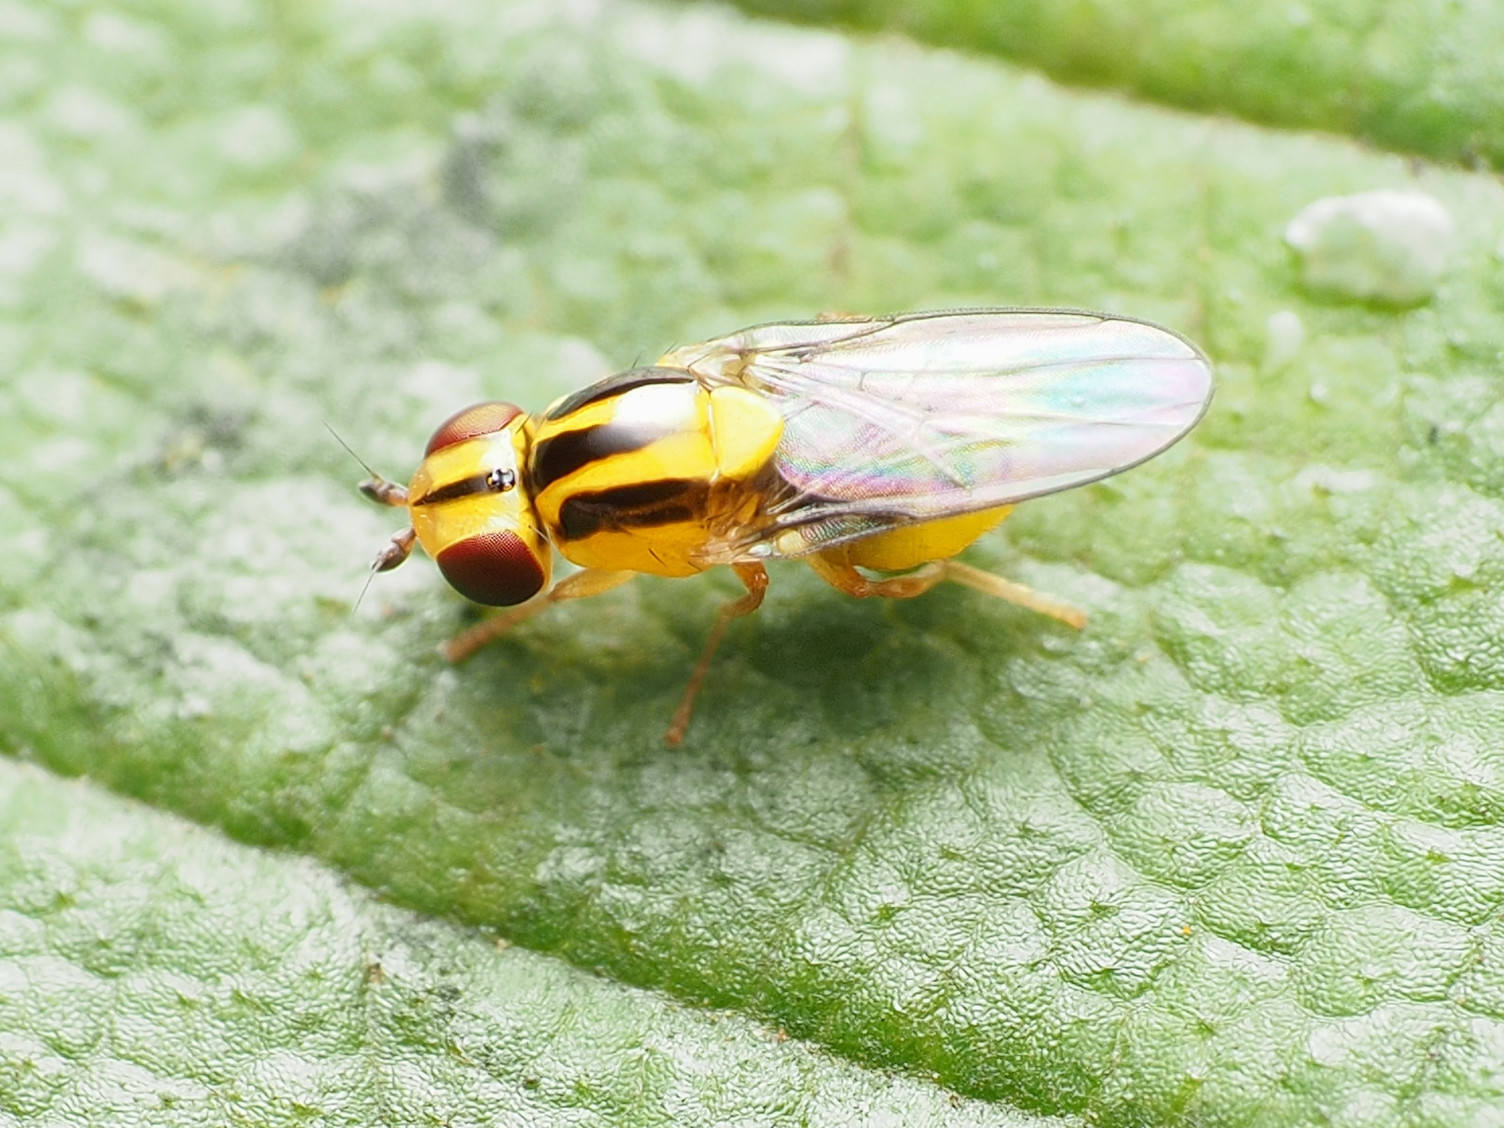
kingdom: Animalia
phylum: Arthropoda
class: Insecta
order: Diptera
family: Chloropidae
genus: Thaumatomyia
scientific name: Thaumatomyia glabra
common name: Chloropid fly
